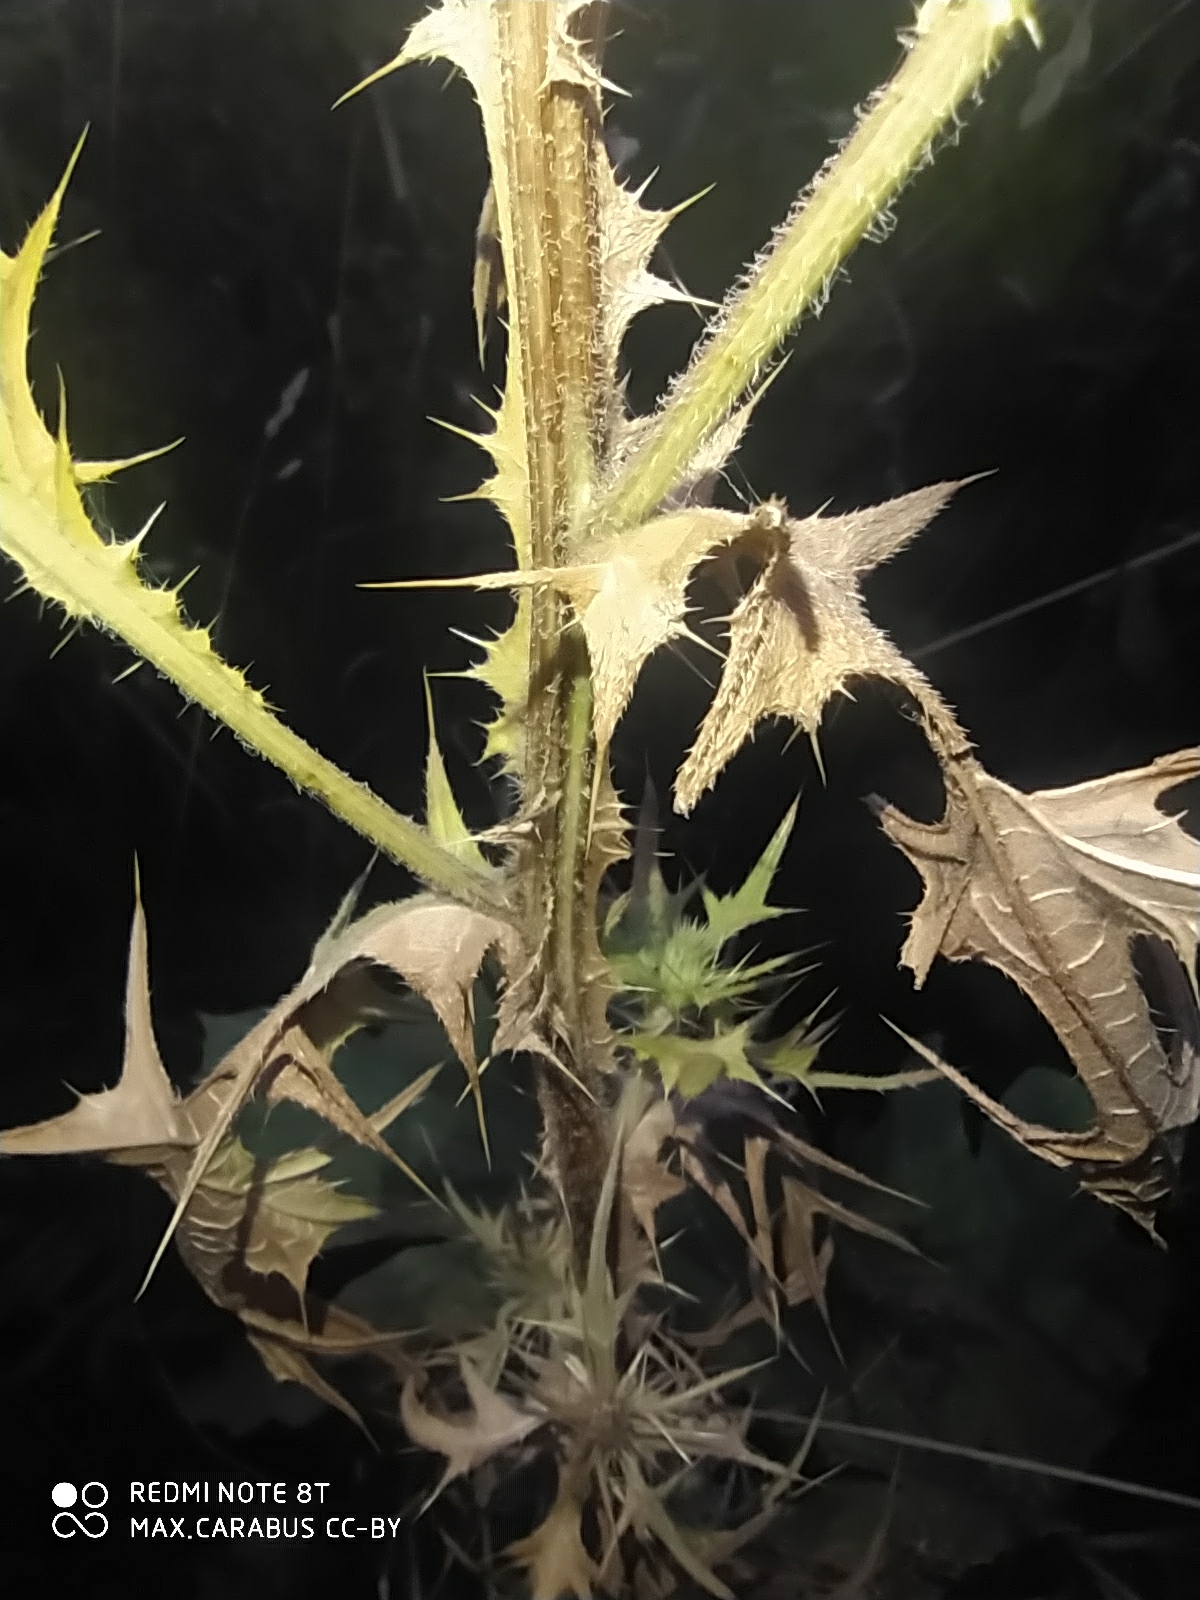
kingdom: Plantae
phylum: Tracheophyta
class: Magnoliopsida
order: Asterales
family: Asteraceae
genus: Cirsium
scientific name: Cirsium vulgare
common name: Bull thistle
